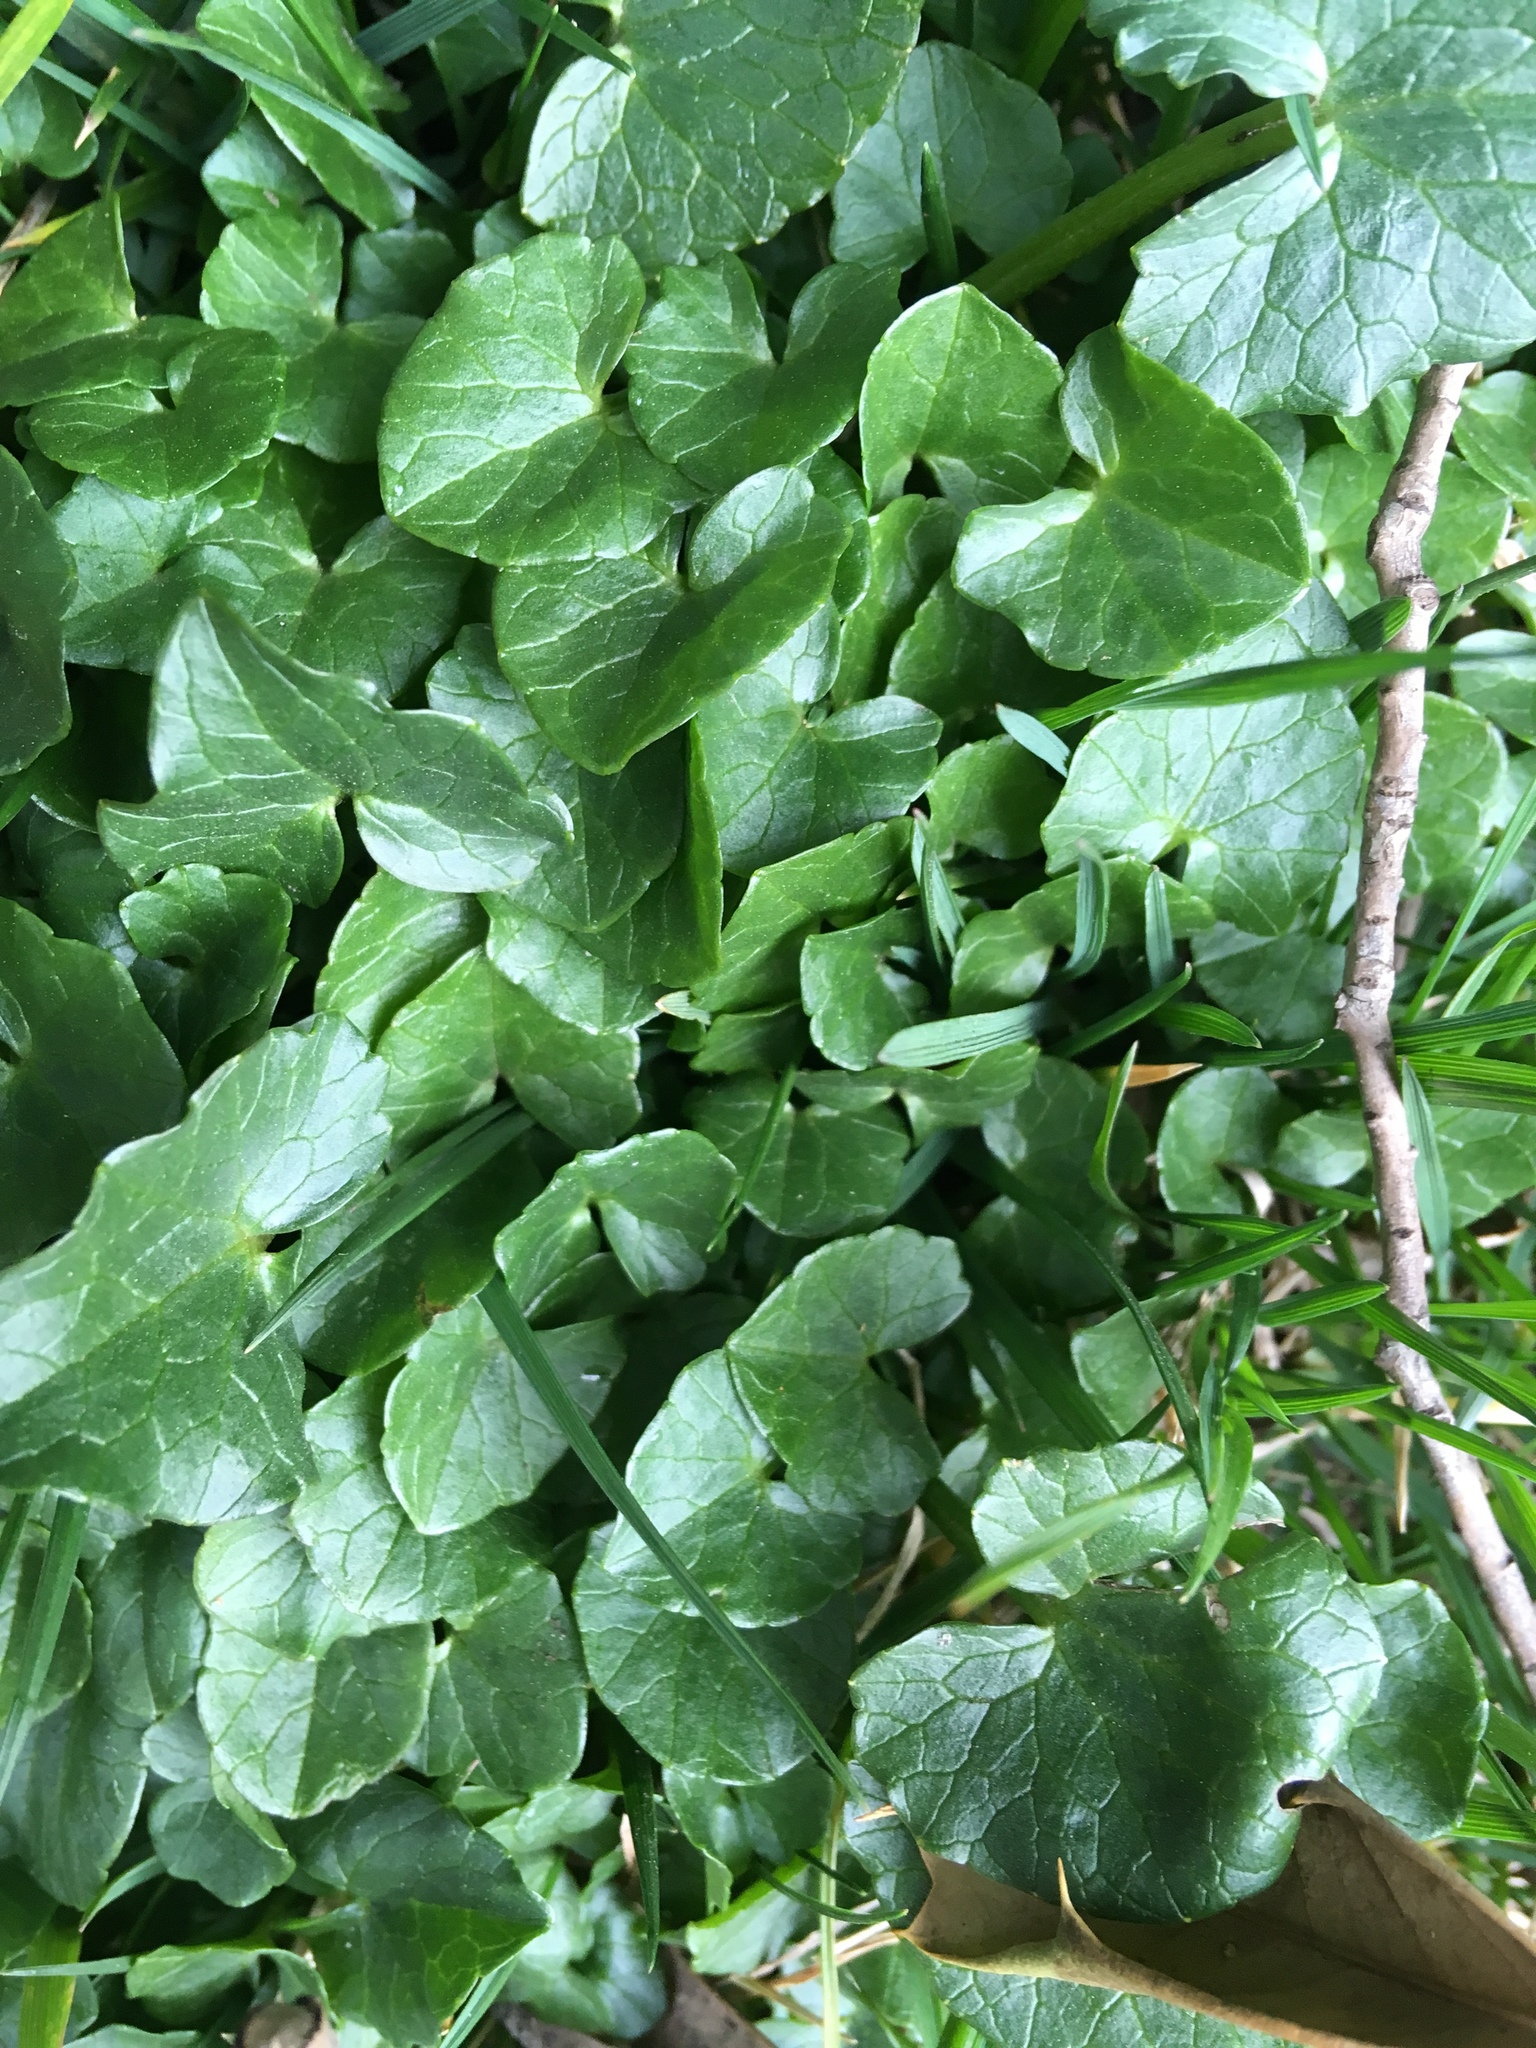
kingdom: Plantae
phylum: Tracheophyta
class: Magnoliopsida
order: Ranunculales
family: Ranunculaceae
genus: Ficaria
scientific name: Ficaria verna
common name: Lesser celandine
